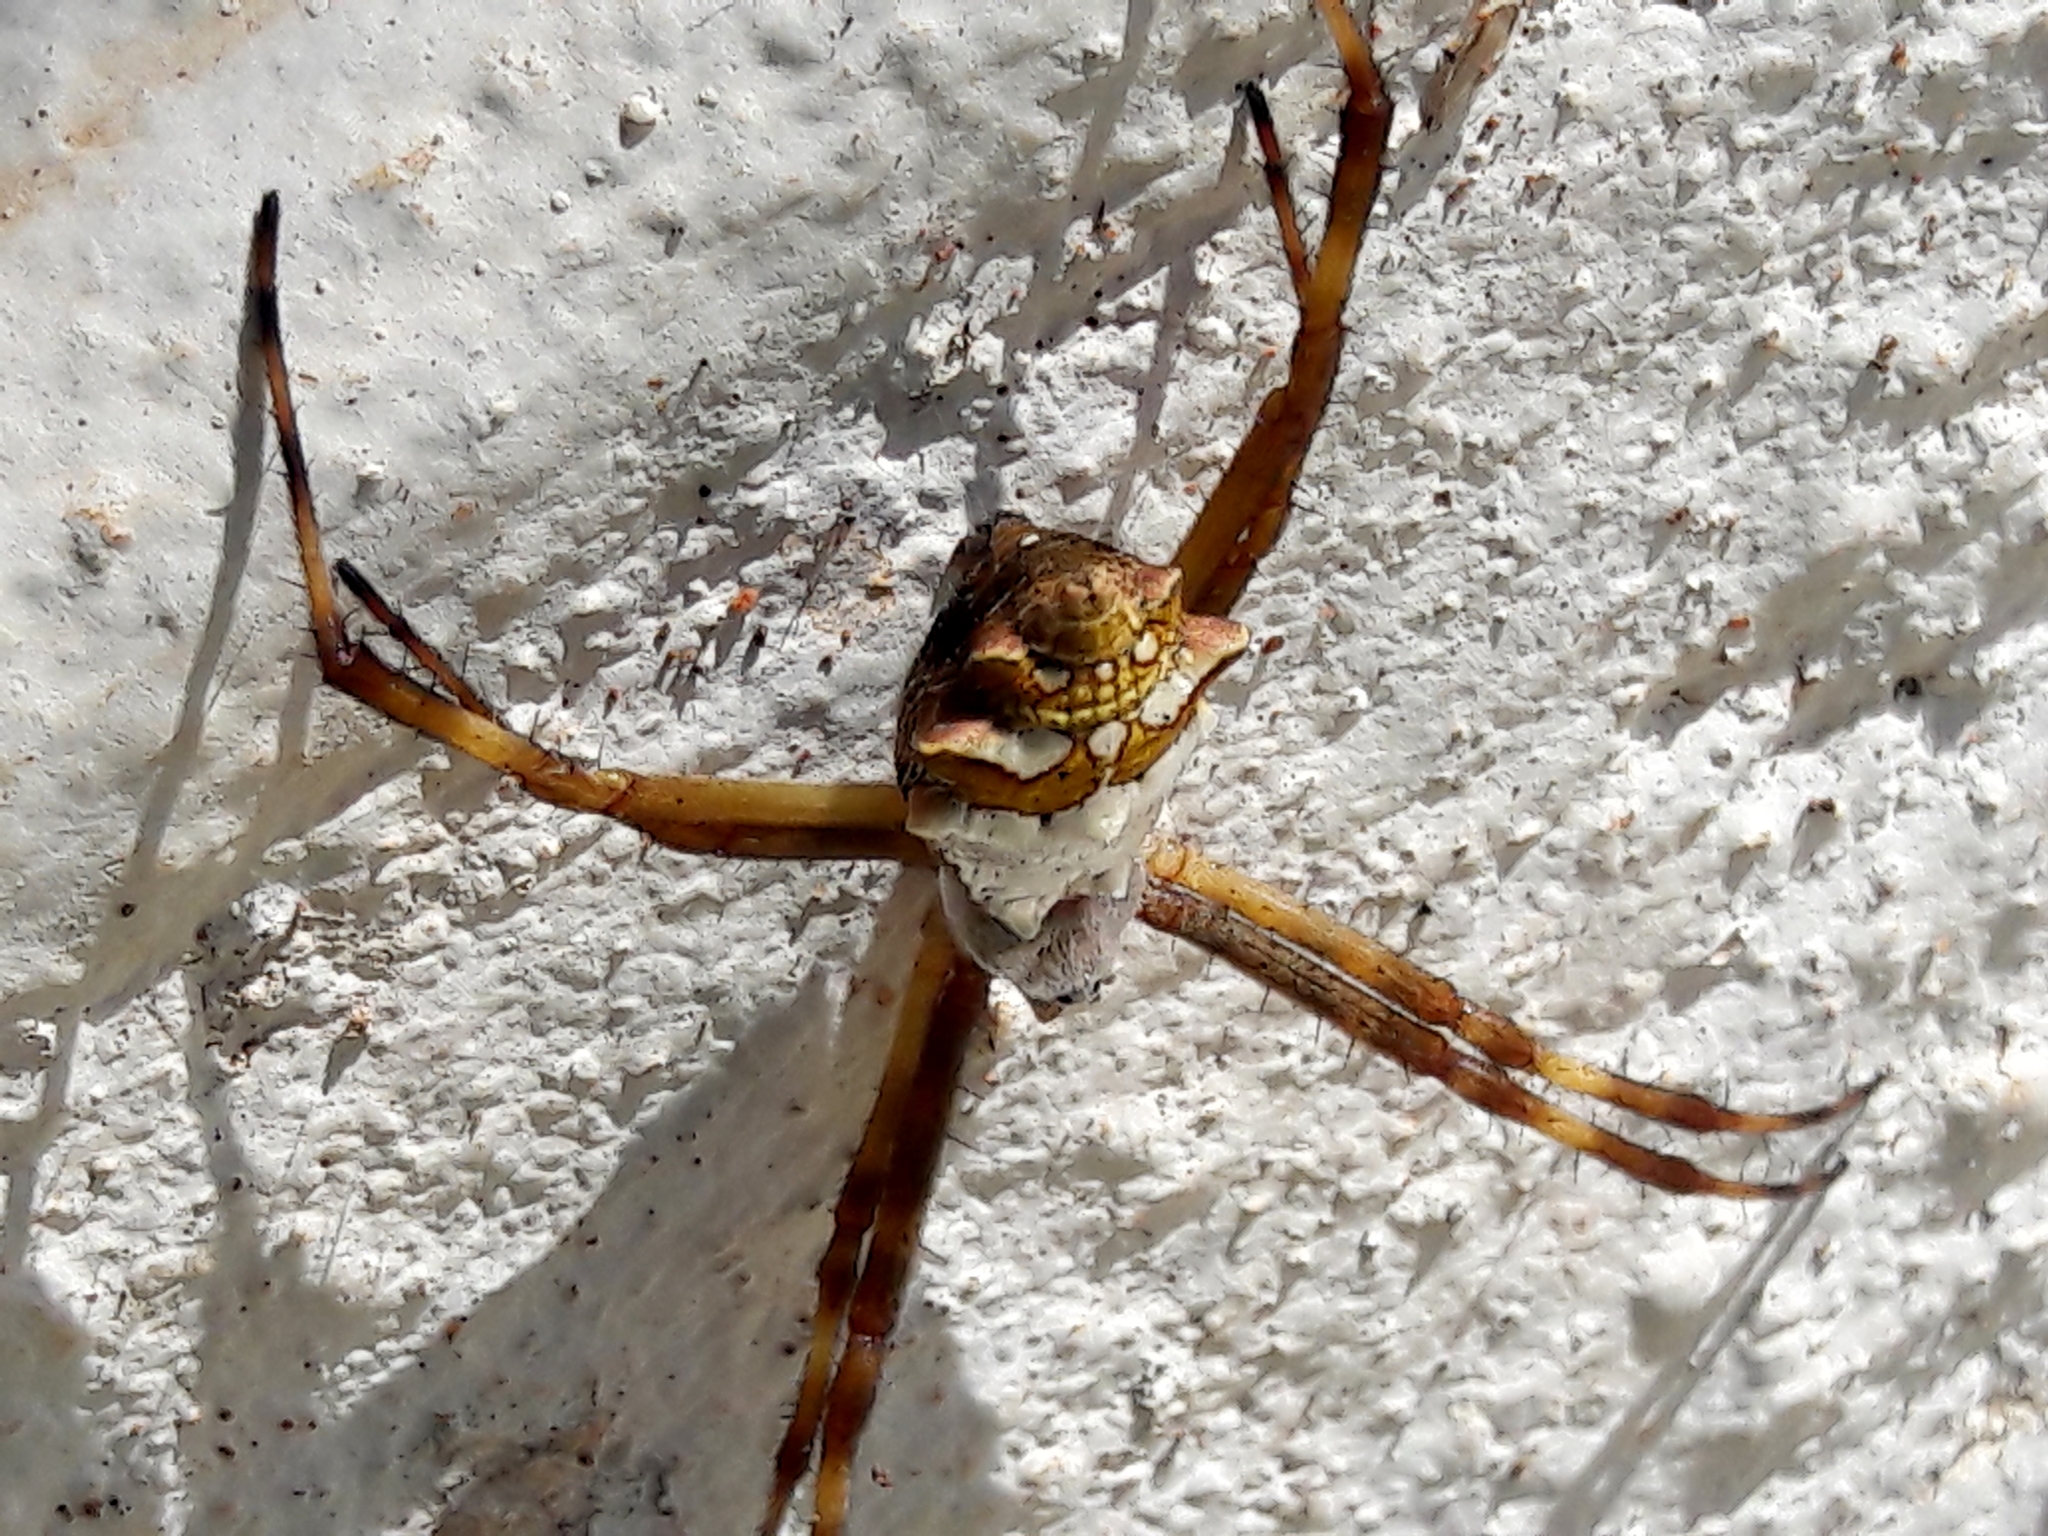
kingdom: Animalia
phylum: Arthropoda
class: Arachnida
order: Araneae
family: Araneidae
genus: Argiope
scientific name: Argiope argentata
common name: Orb weavers
